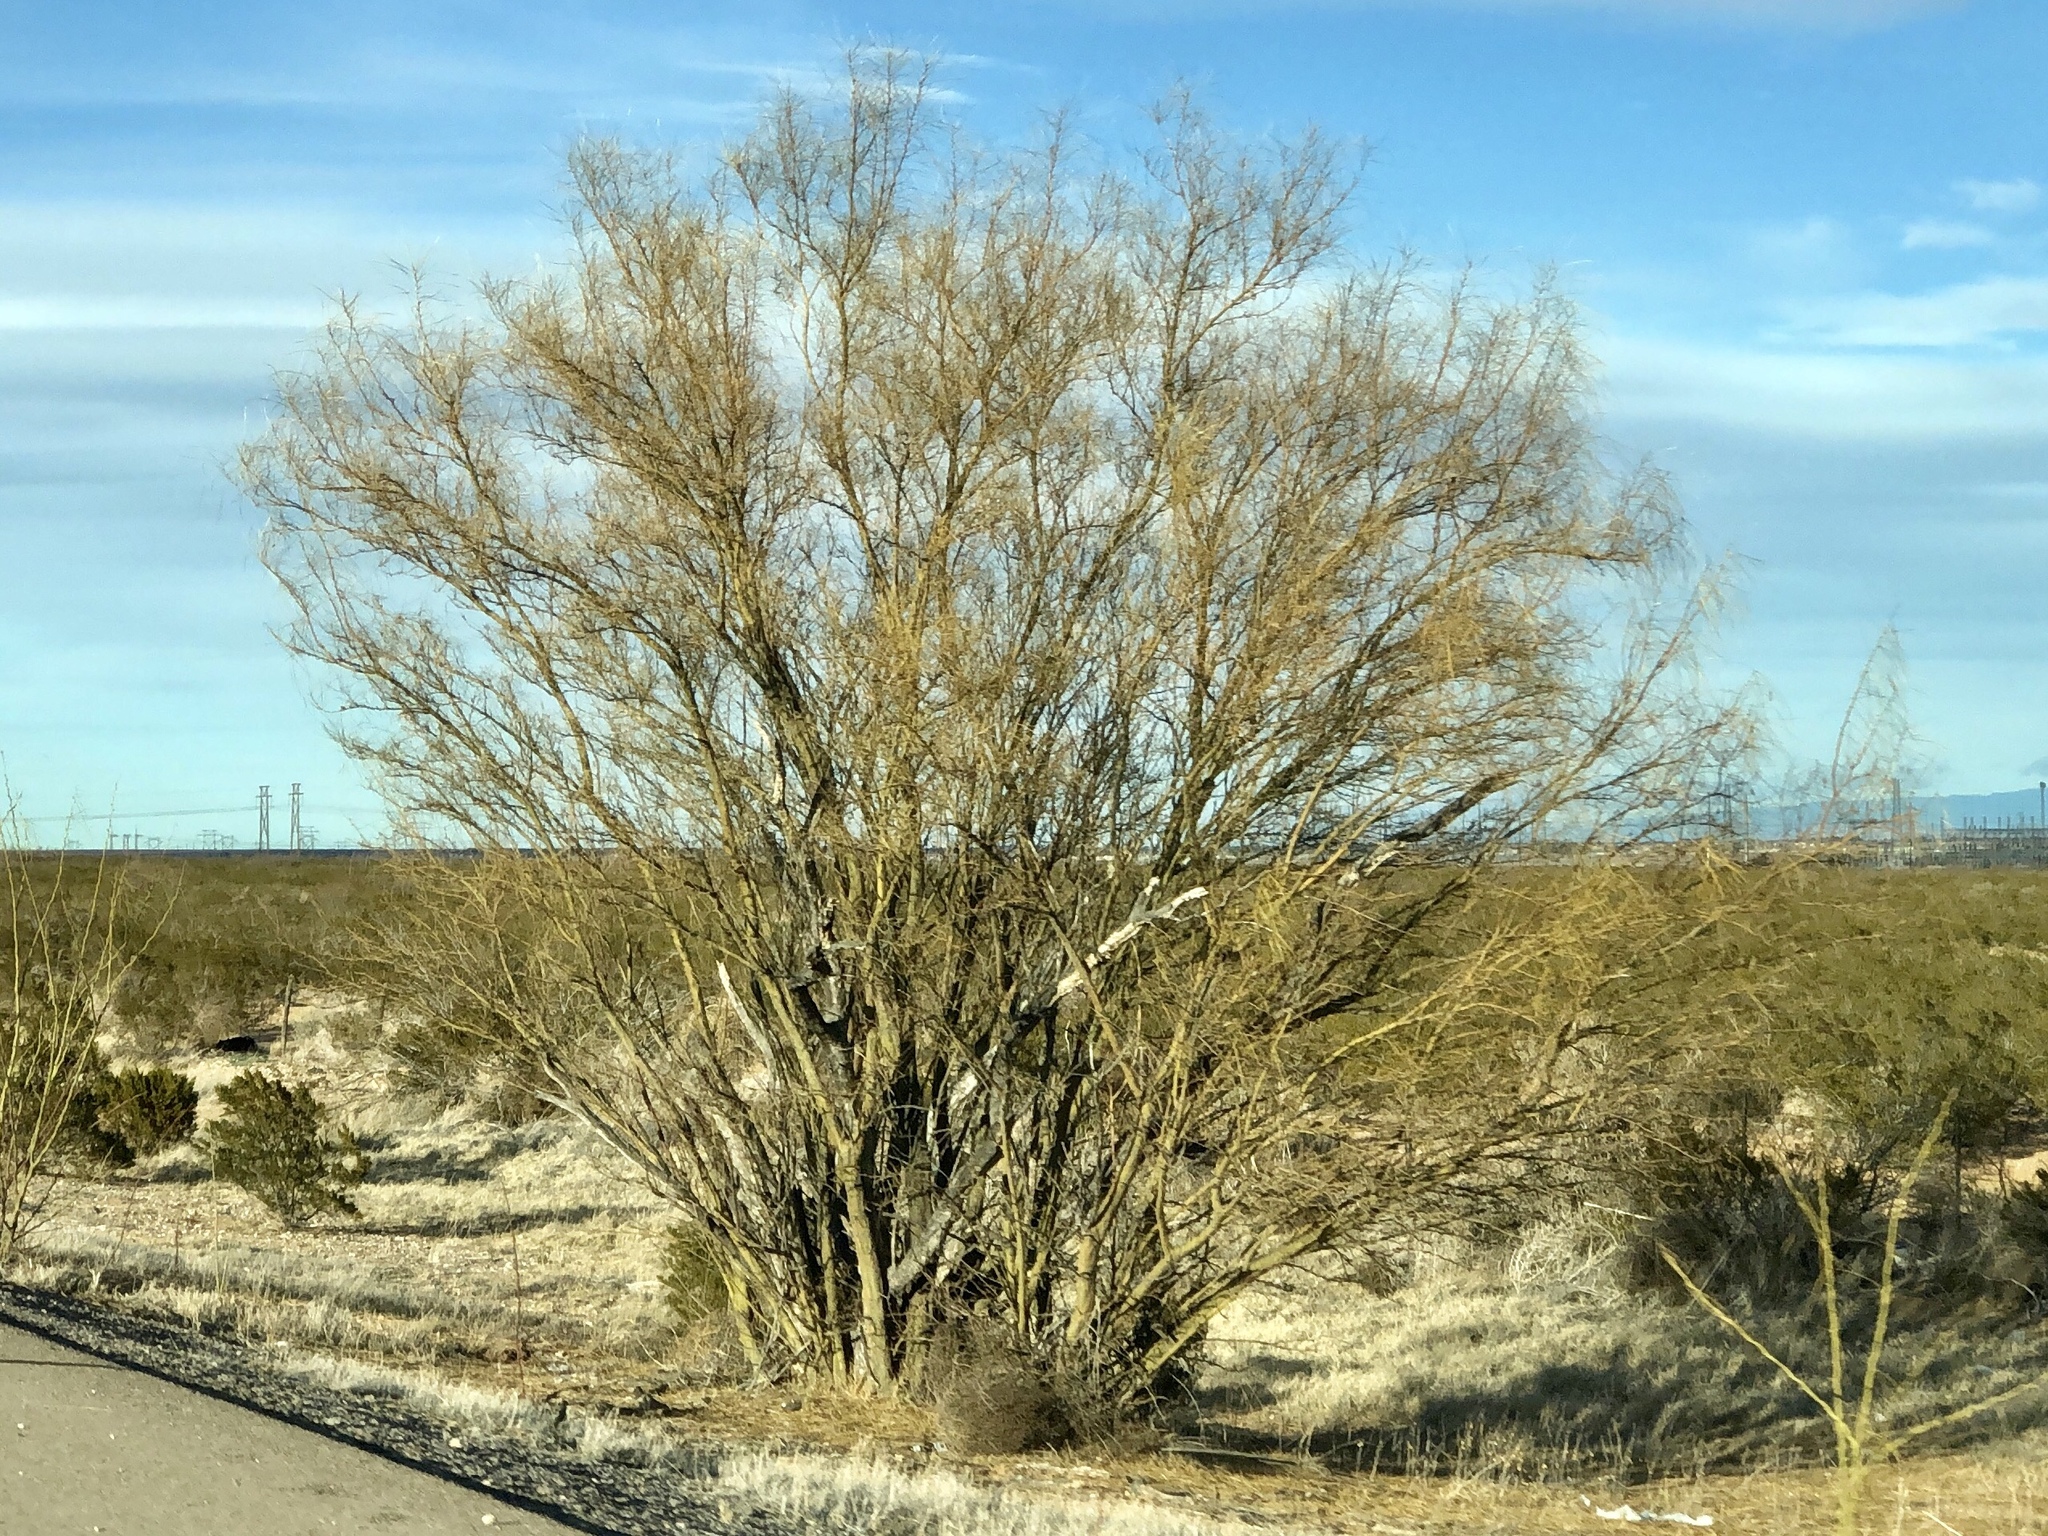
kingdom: Plantae
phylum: Tracheophyta
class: Magnoliopsida
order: Fabales
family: Fabaceae
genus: Parkinsonia
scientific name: Parkinsonia aculeata
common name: Jerusalem thorn
